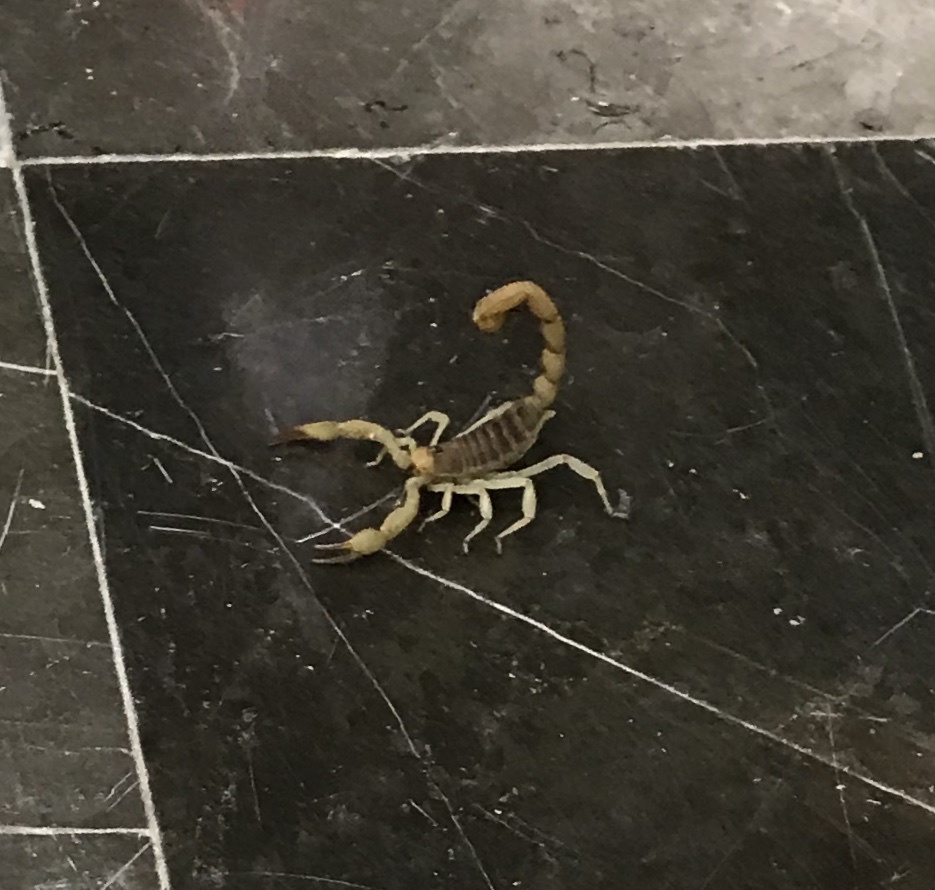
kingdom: Animalia
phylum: Arthropoda
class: Arachnida
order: Scorpiones
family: Hadruridae
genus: Hadrurus
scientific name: Hadrurus concolorous
